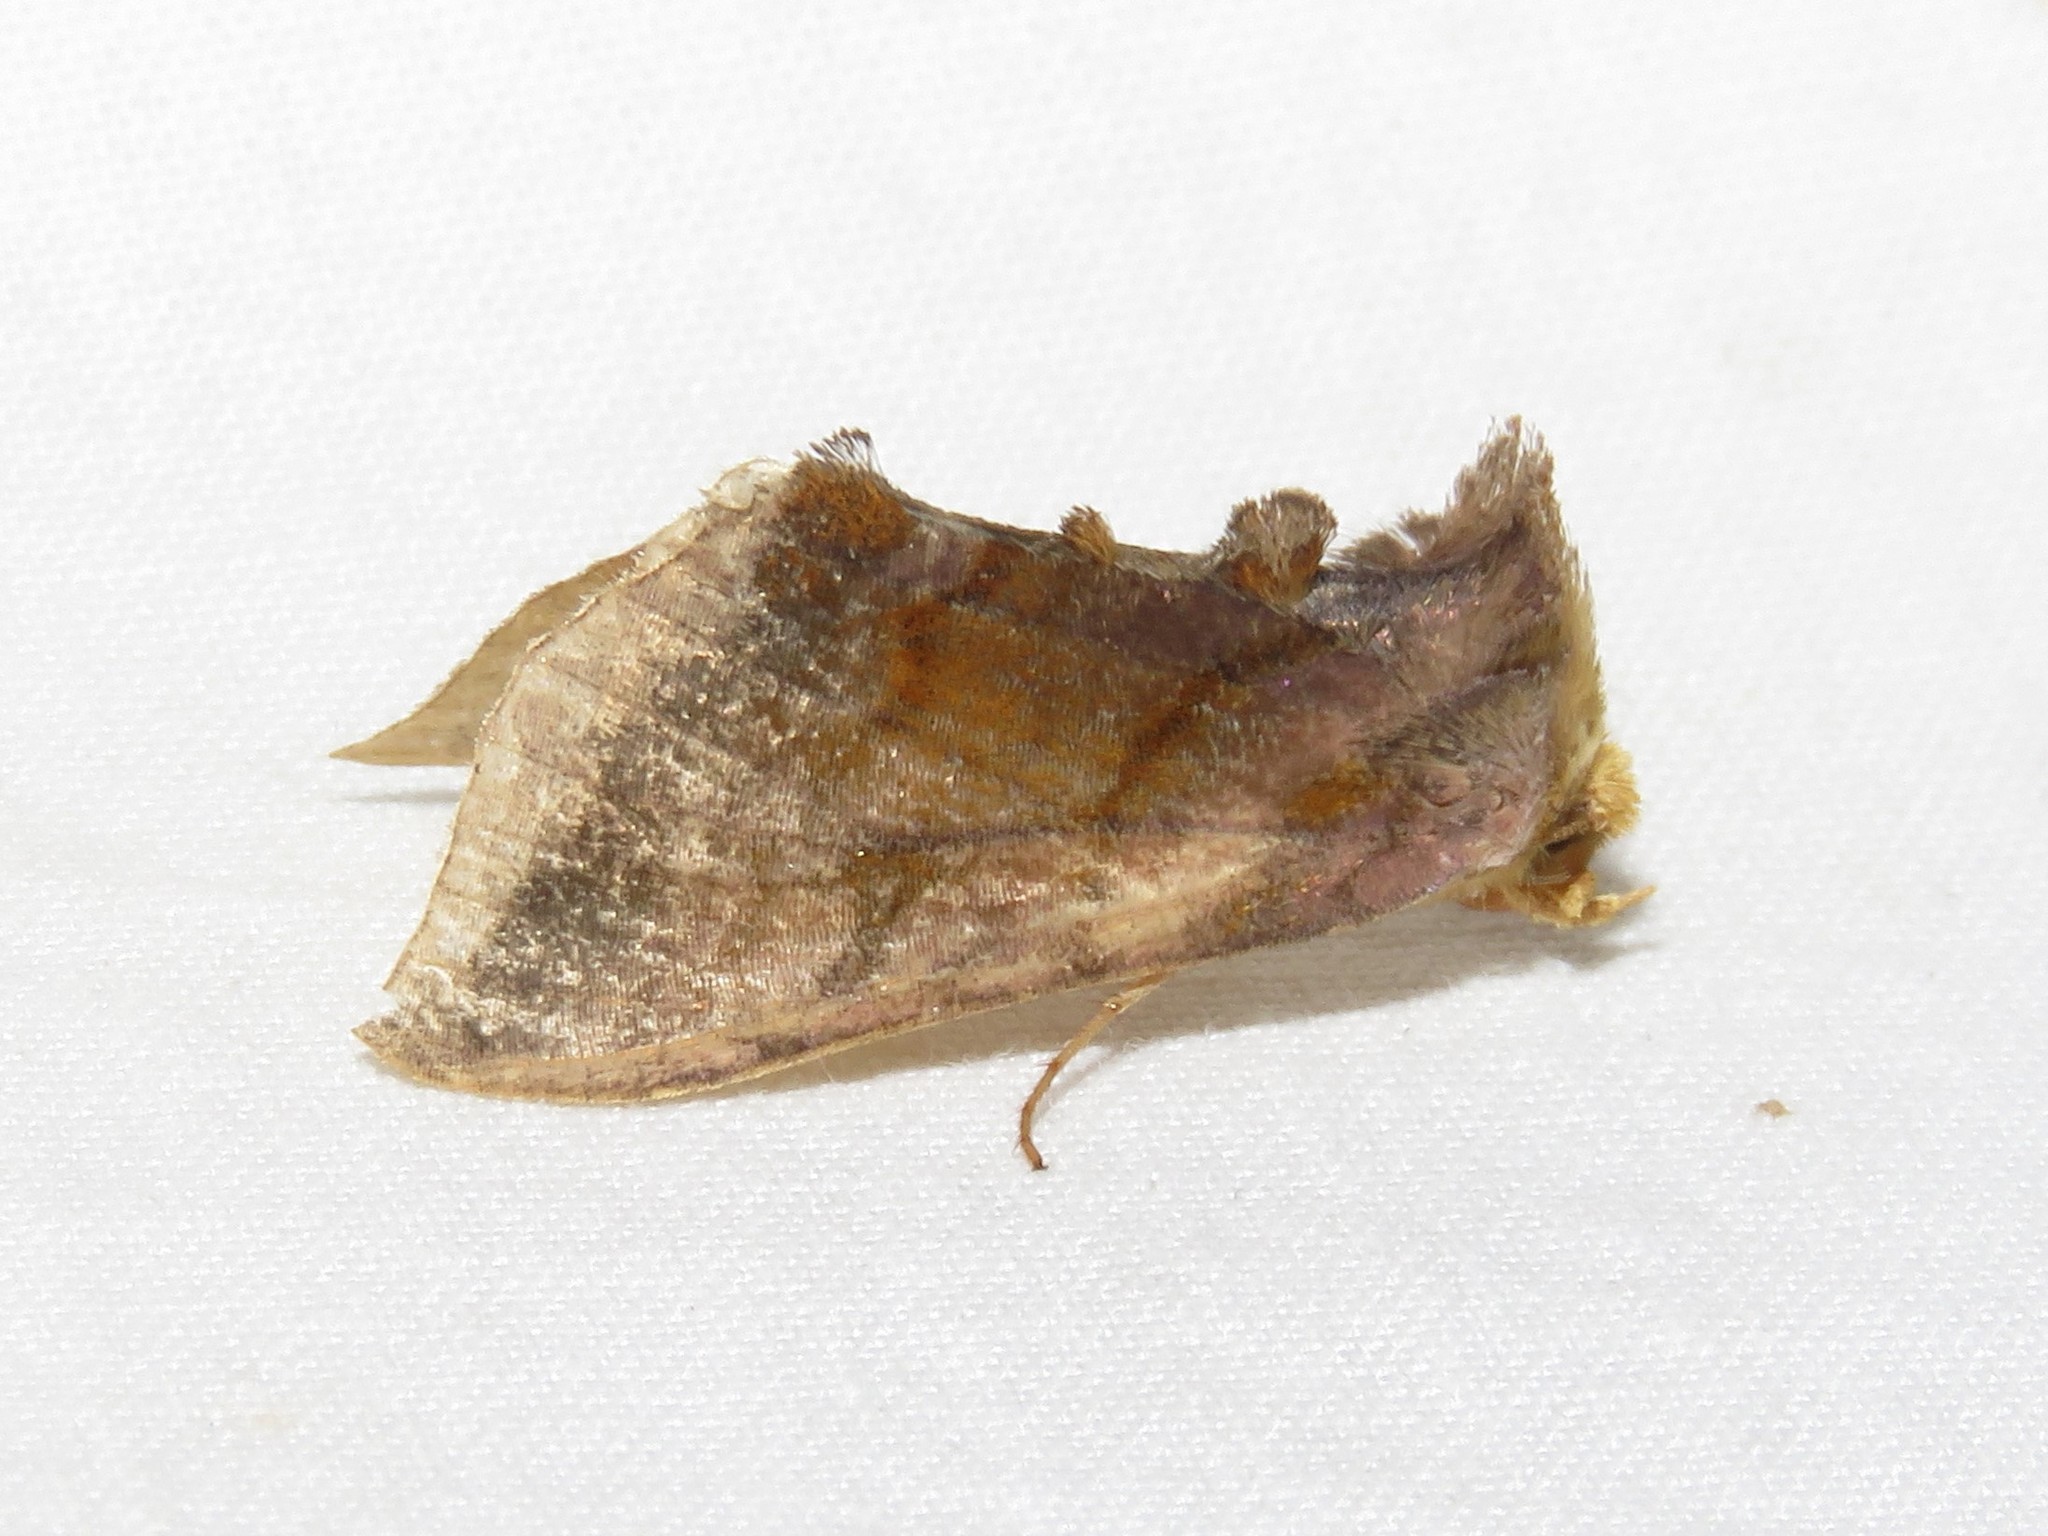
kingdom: Animalia
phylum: Arthropoda
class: Insecta
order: Lepidoptera
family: Noctuidae
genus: Allagrapha
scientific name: Allagrapha aerea
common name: Unspotted looper moth
